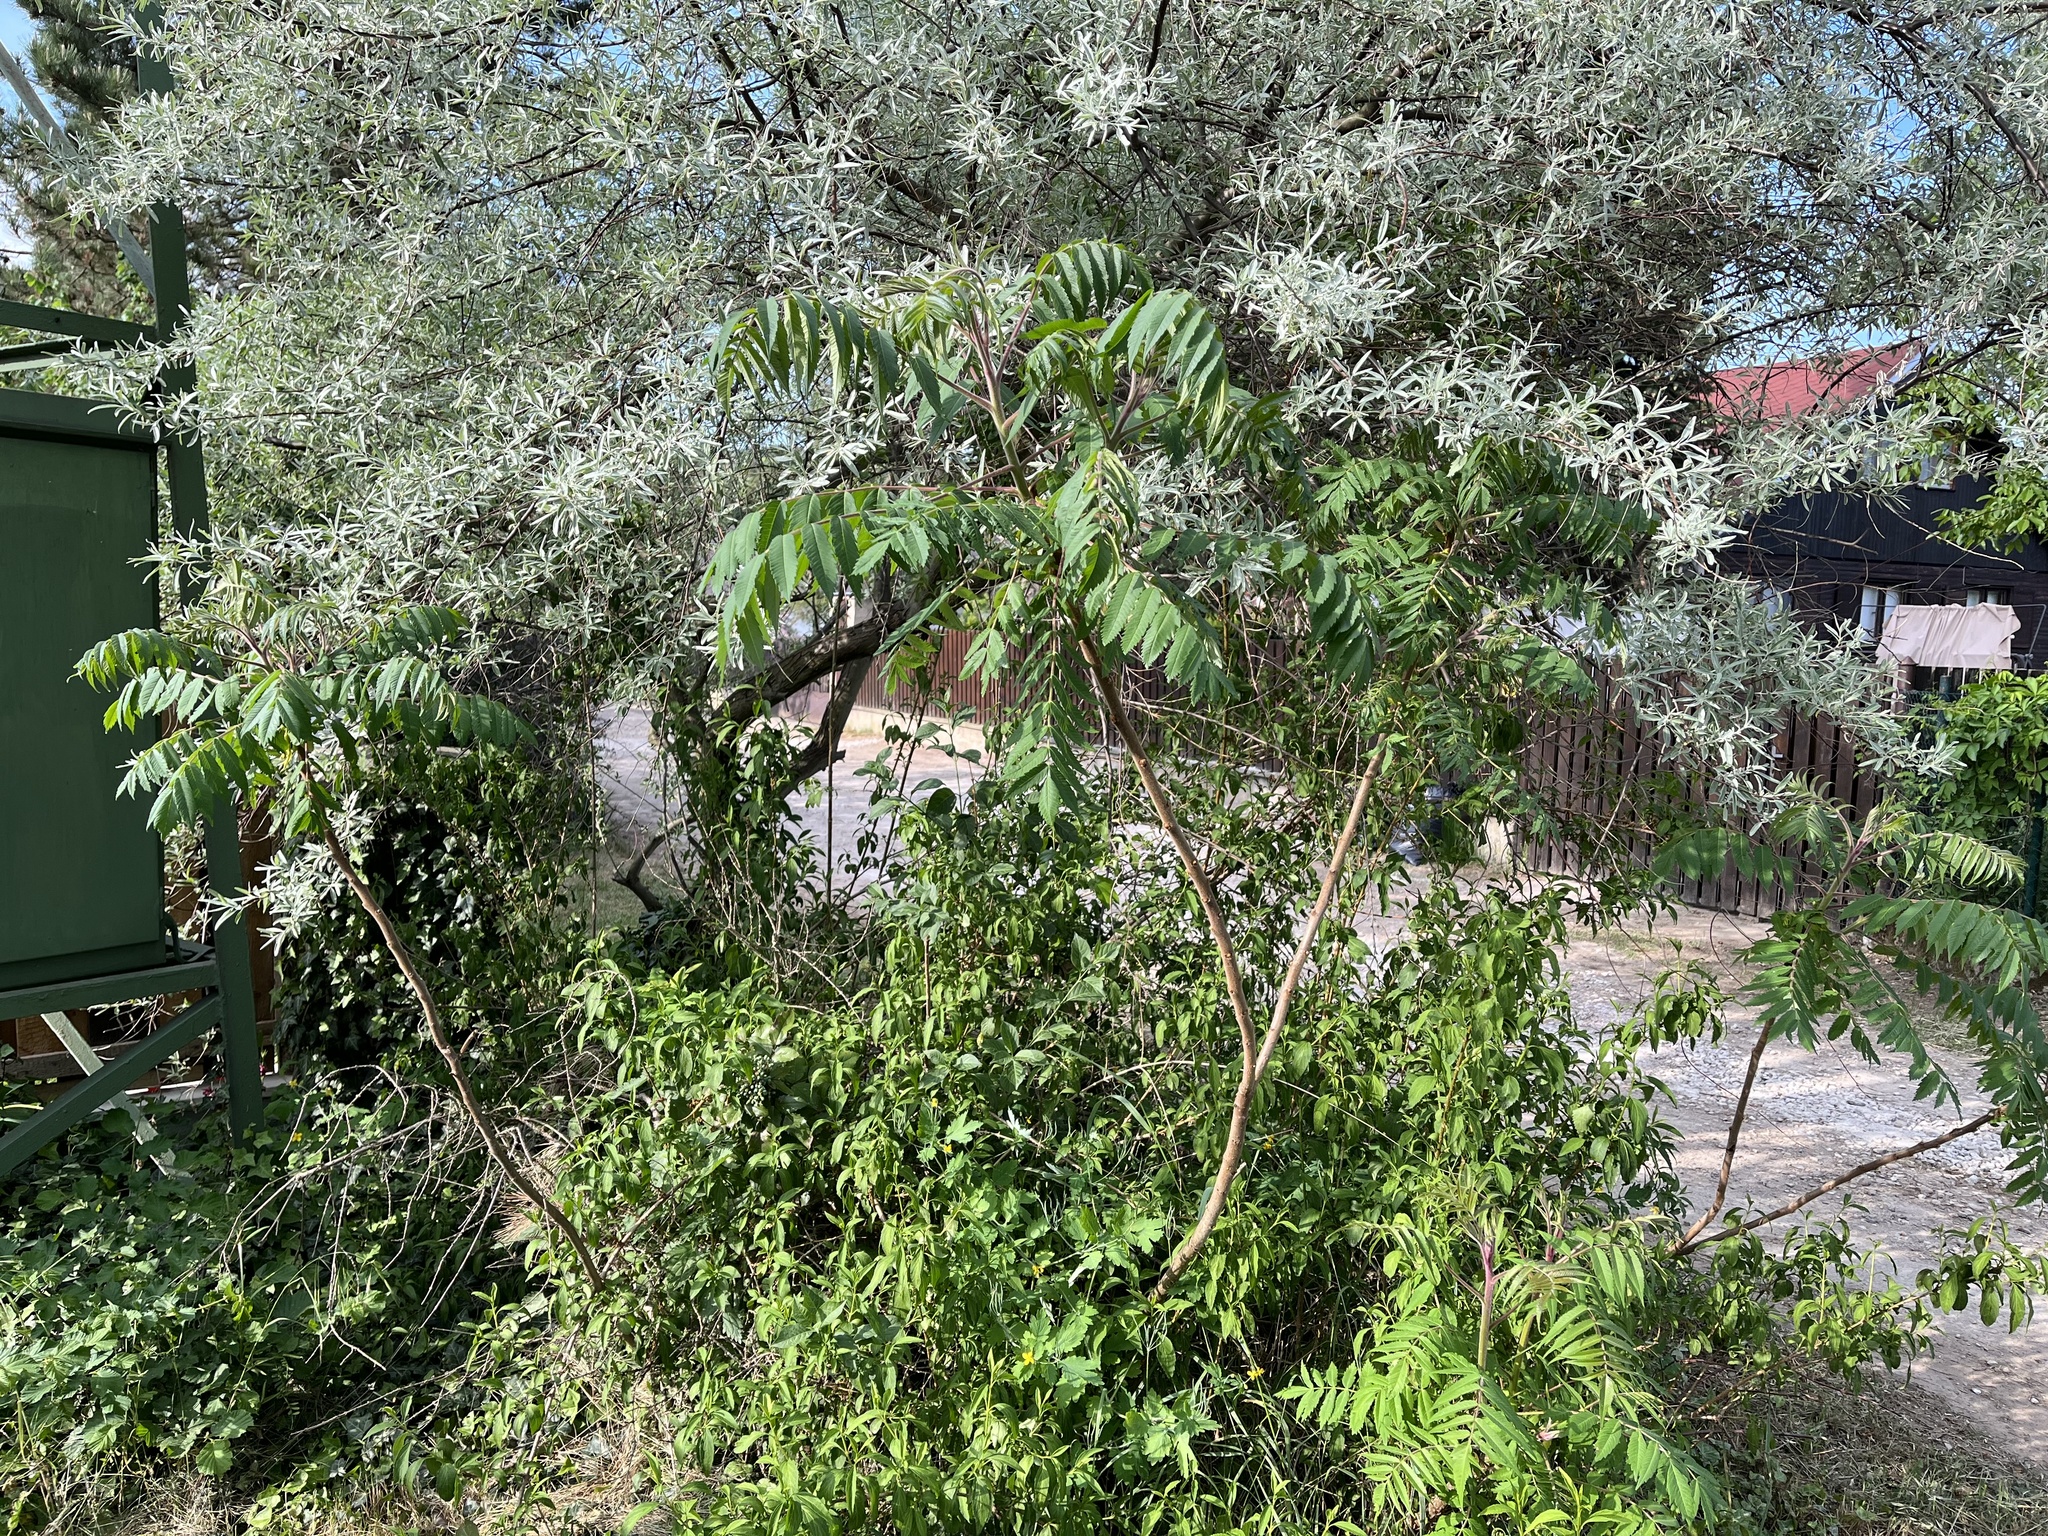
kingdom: Plantae
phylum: Tracheophyta
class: Magnoliopsida
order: Sapindales
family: Anacardiaceae
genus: Rhus
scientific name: Rhus typhina
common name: Staghorn sumac
